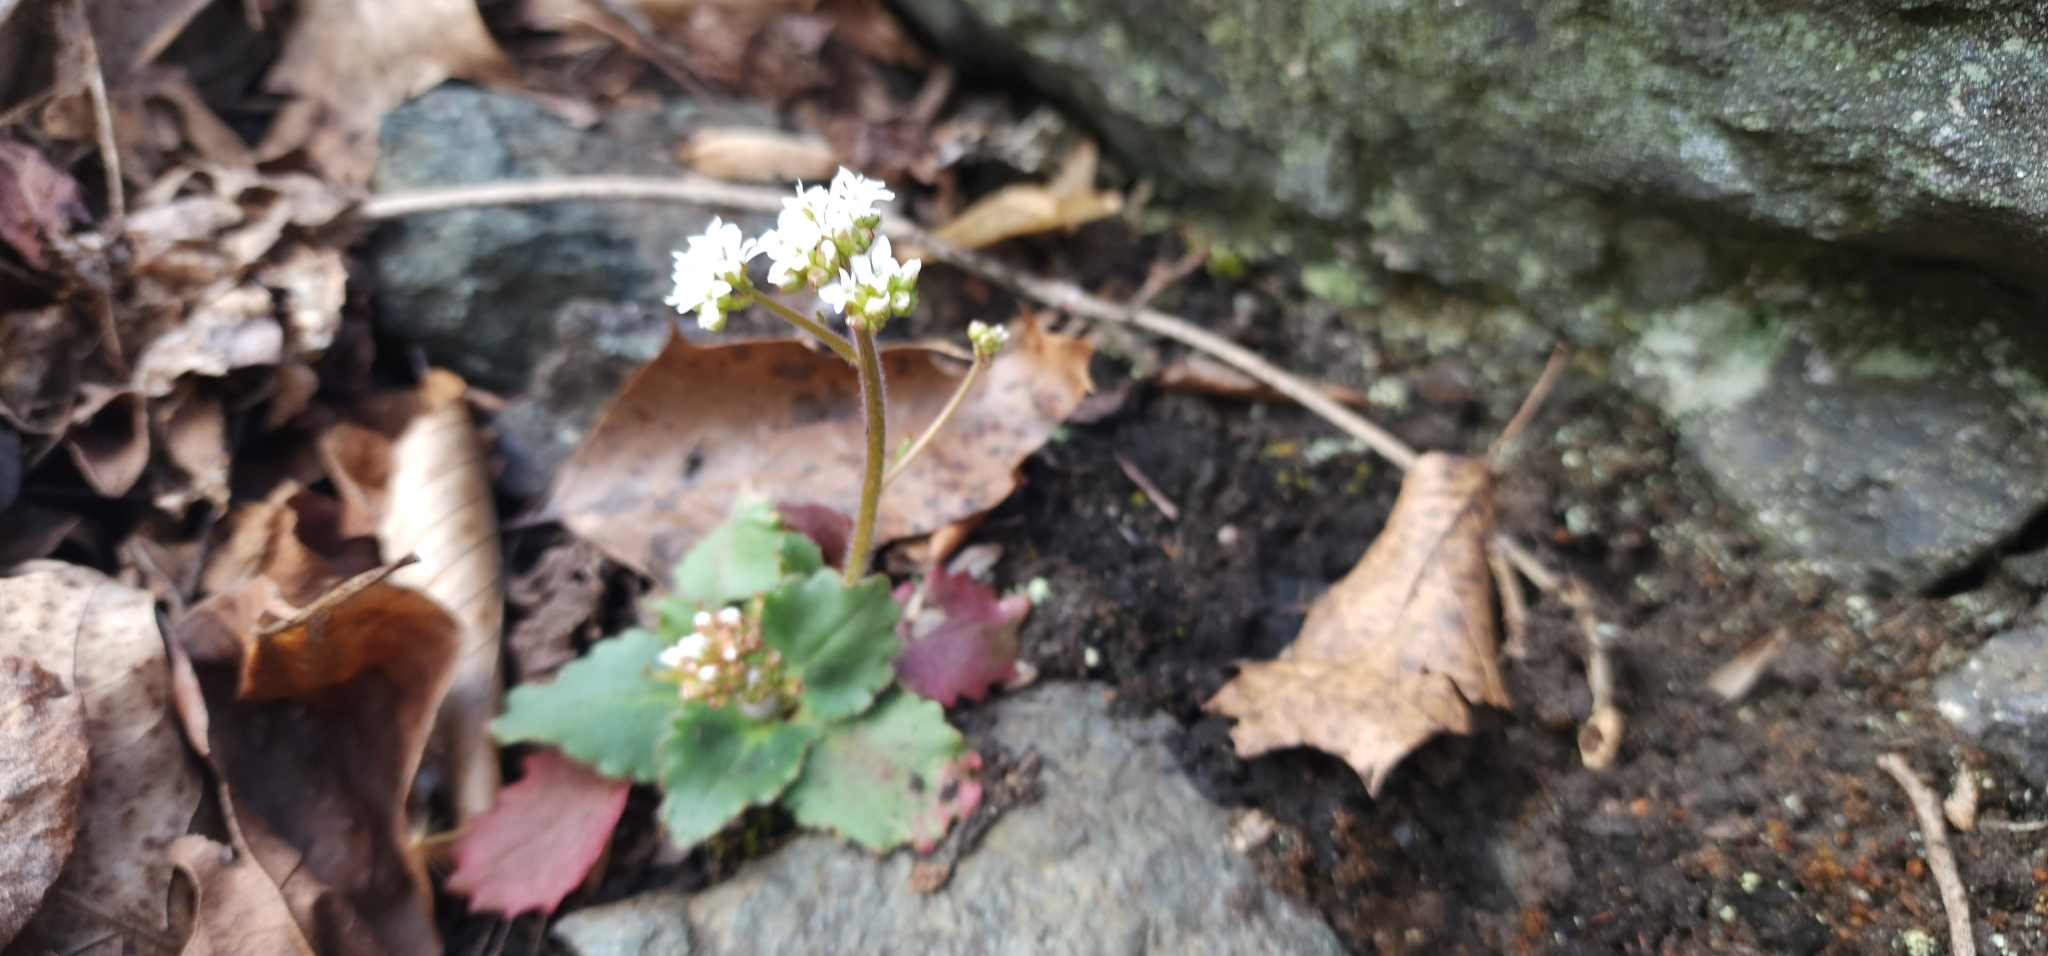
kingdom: Plantae
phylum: Tracheophyta
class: Magnoliopsida
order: Saxifragales
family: Saxifragaceae
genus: Micranthes
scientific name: Micranthes virginiensis
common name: Early saxifrage
